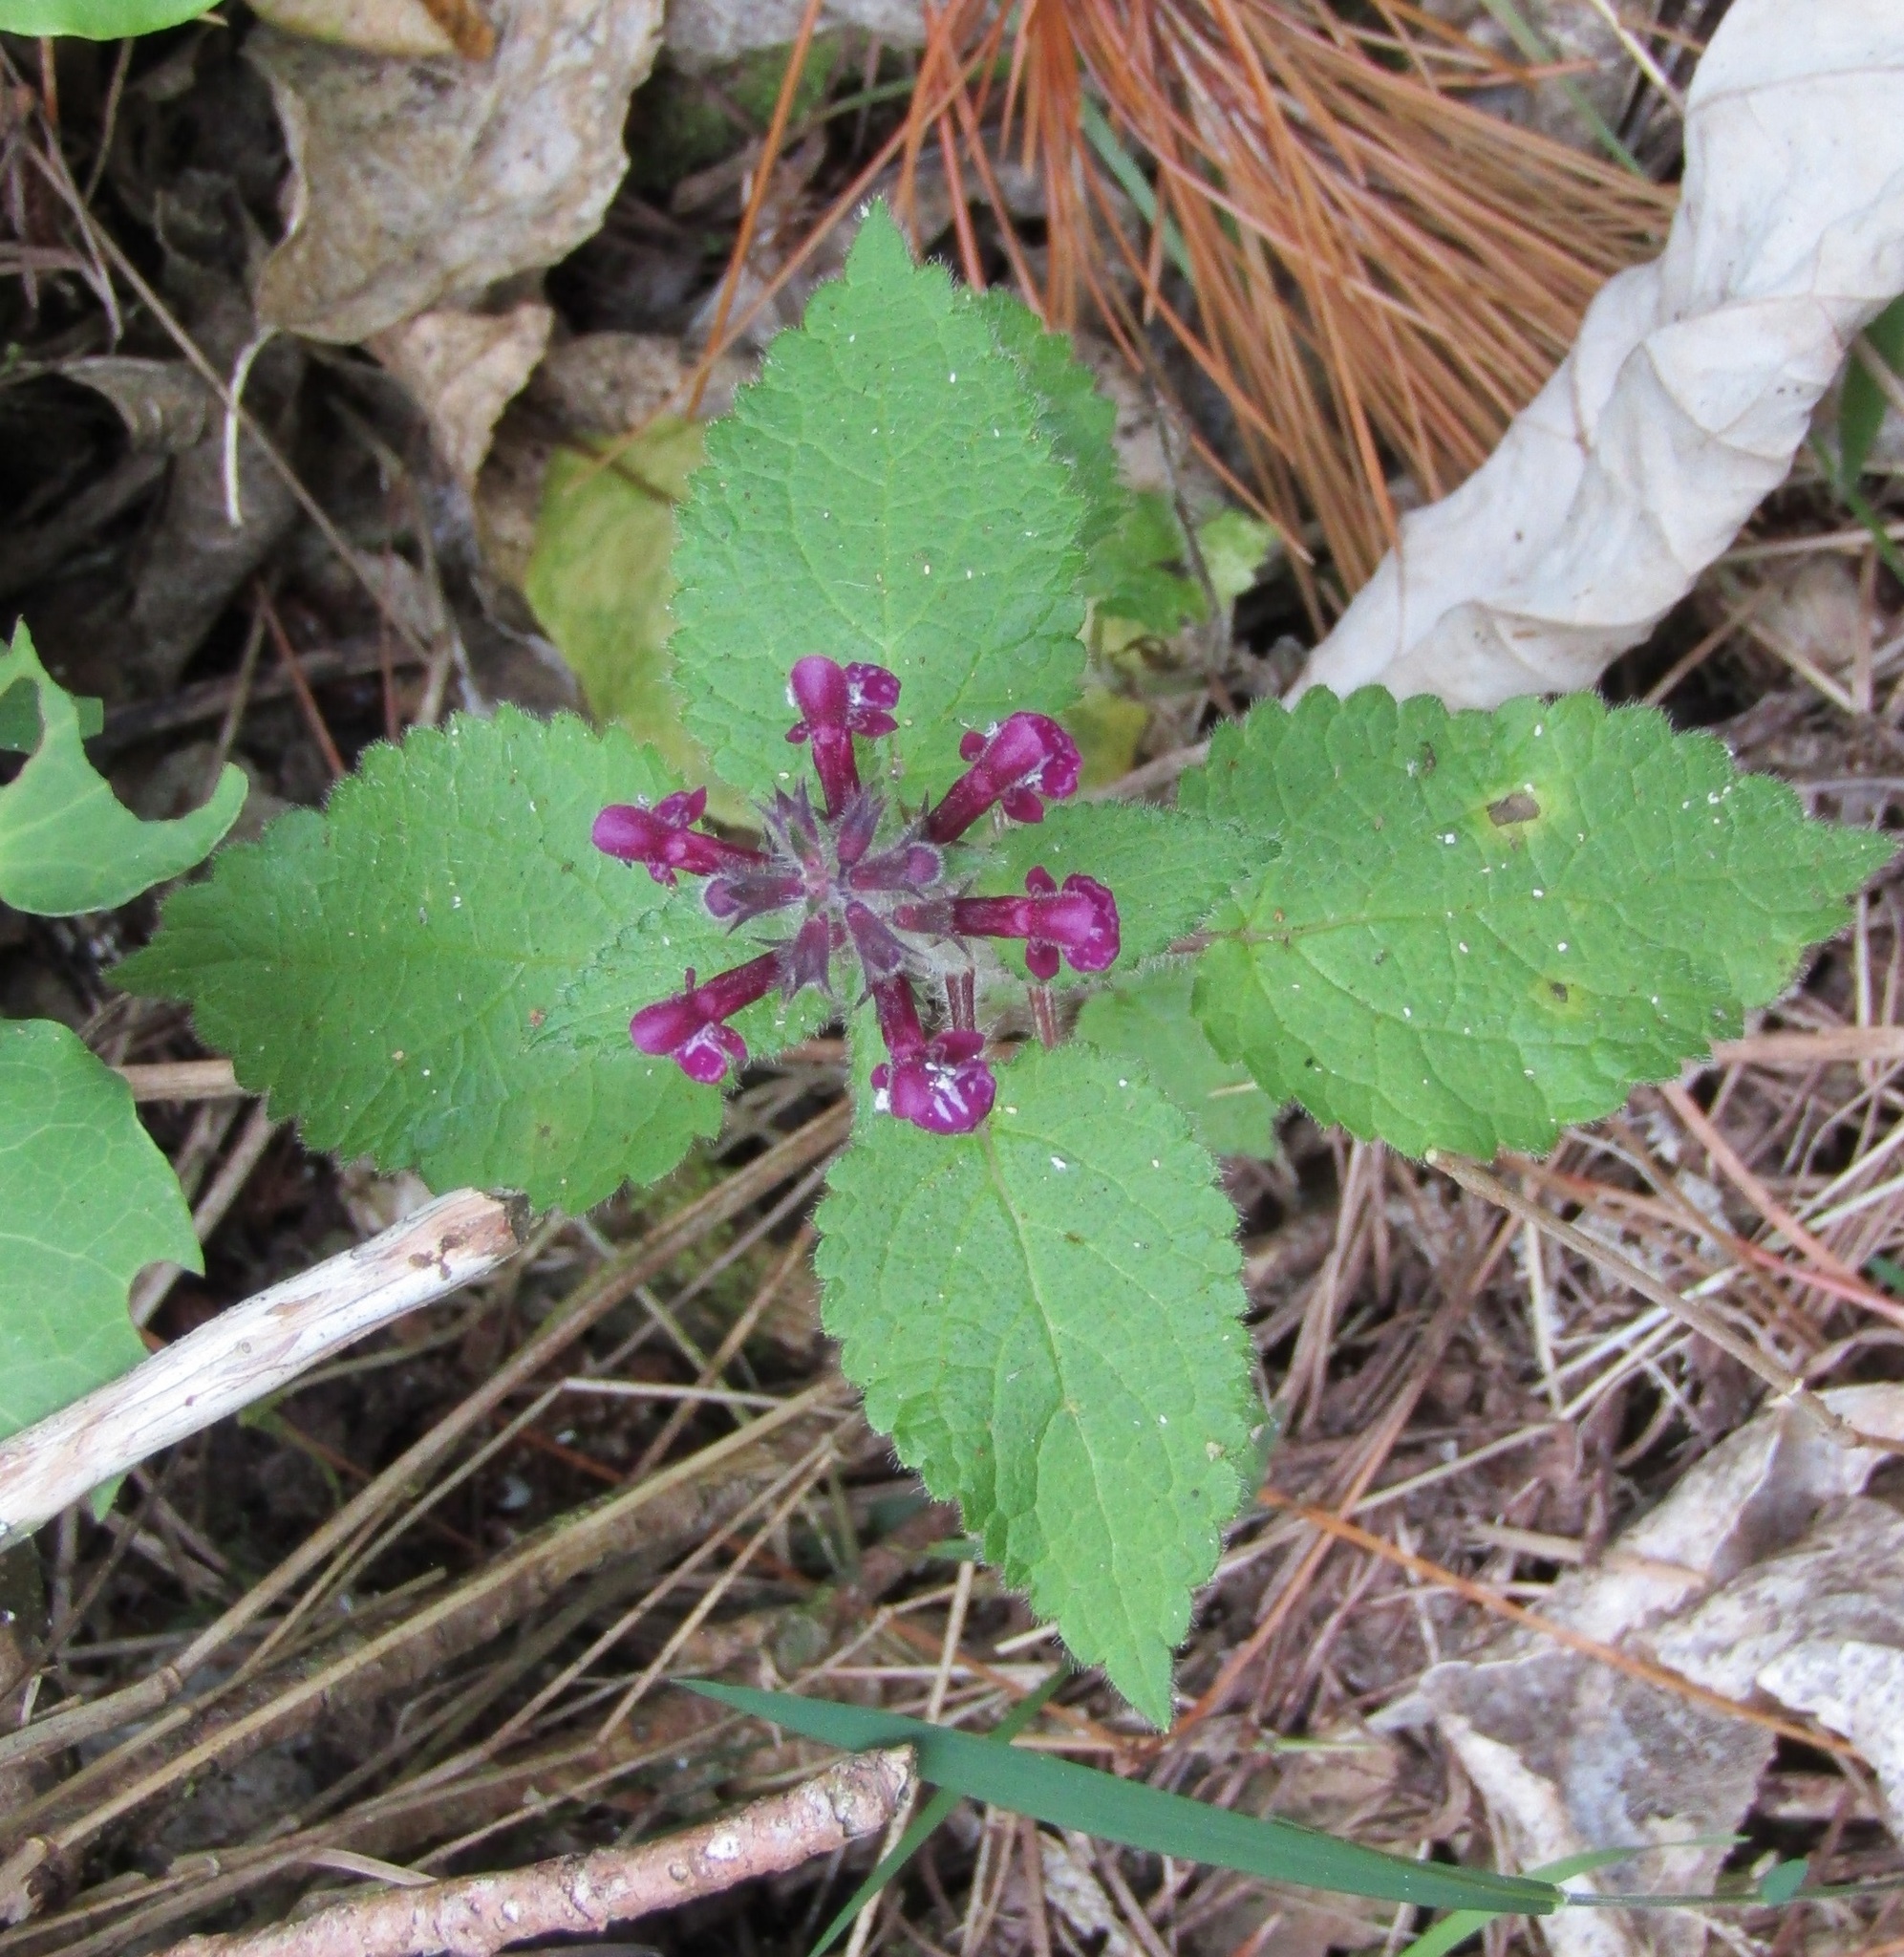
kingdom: Plantae
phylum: Tracheophyta
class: Magnoliopsida
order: Lamiales
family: Lamiaceae
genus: Stachys
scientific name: Stachys sylvatica
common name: Hedge woundwort
